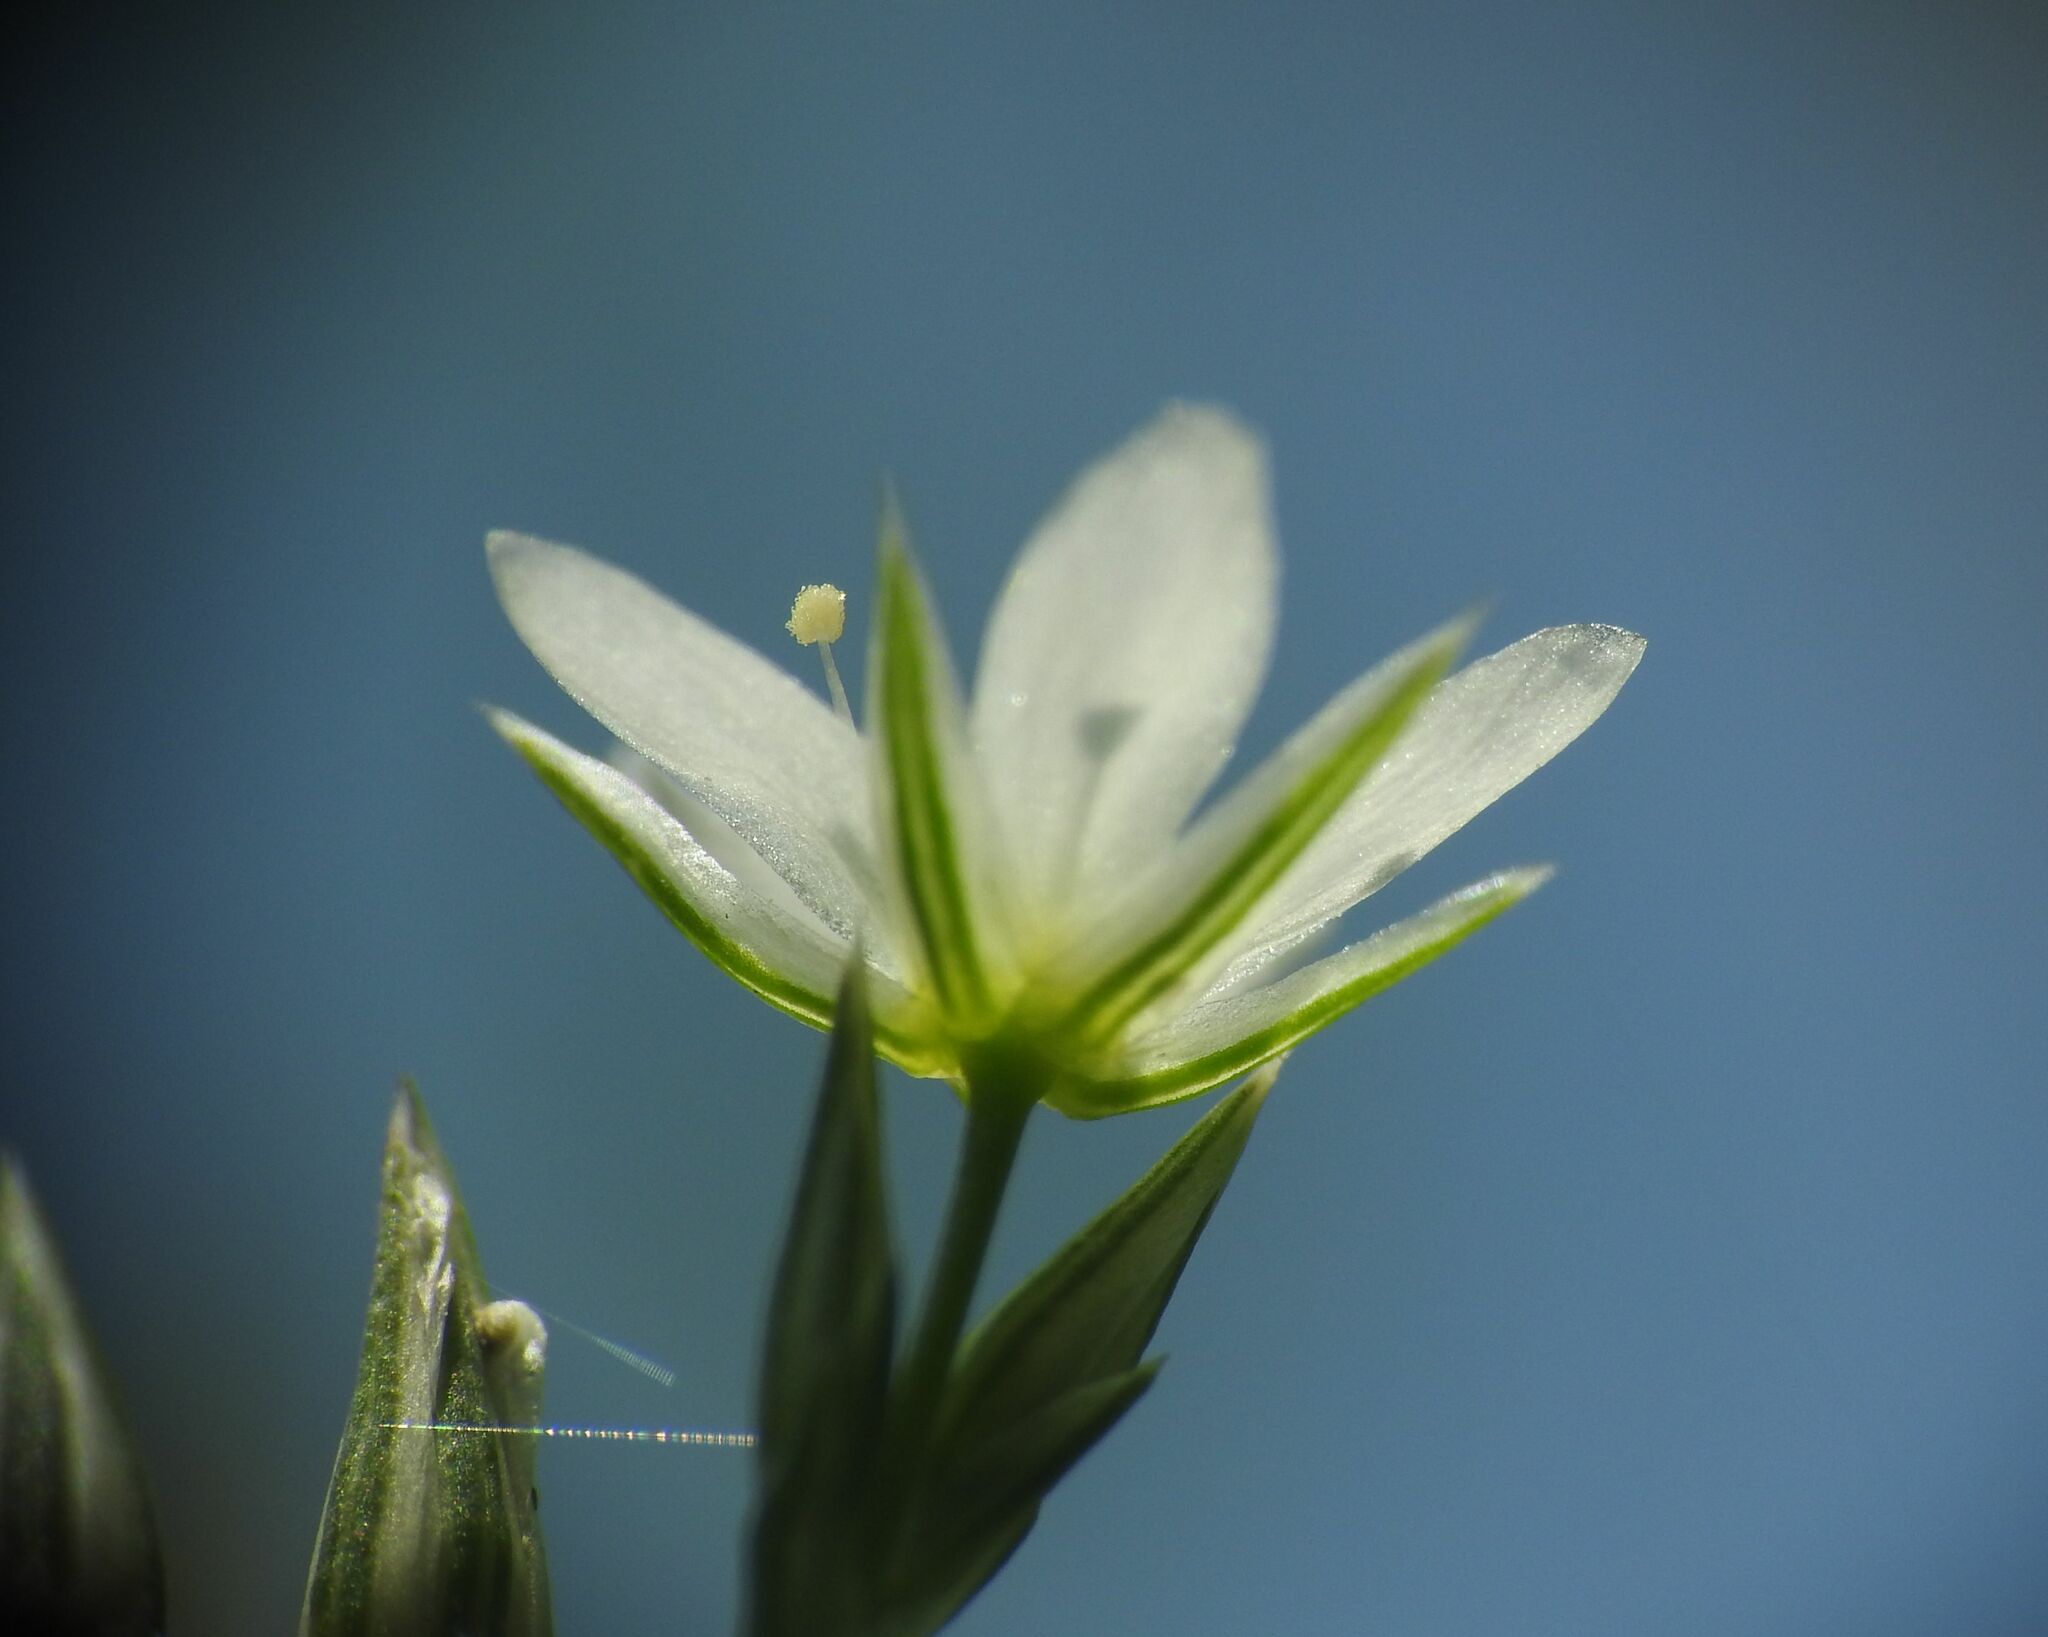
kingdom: Plantae
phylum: Tracheophyta
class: Magnoliopsida
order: Caryophyllales
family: Caryophyllaceae
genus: Minuartia
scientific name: Minuartia rostrata
